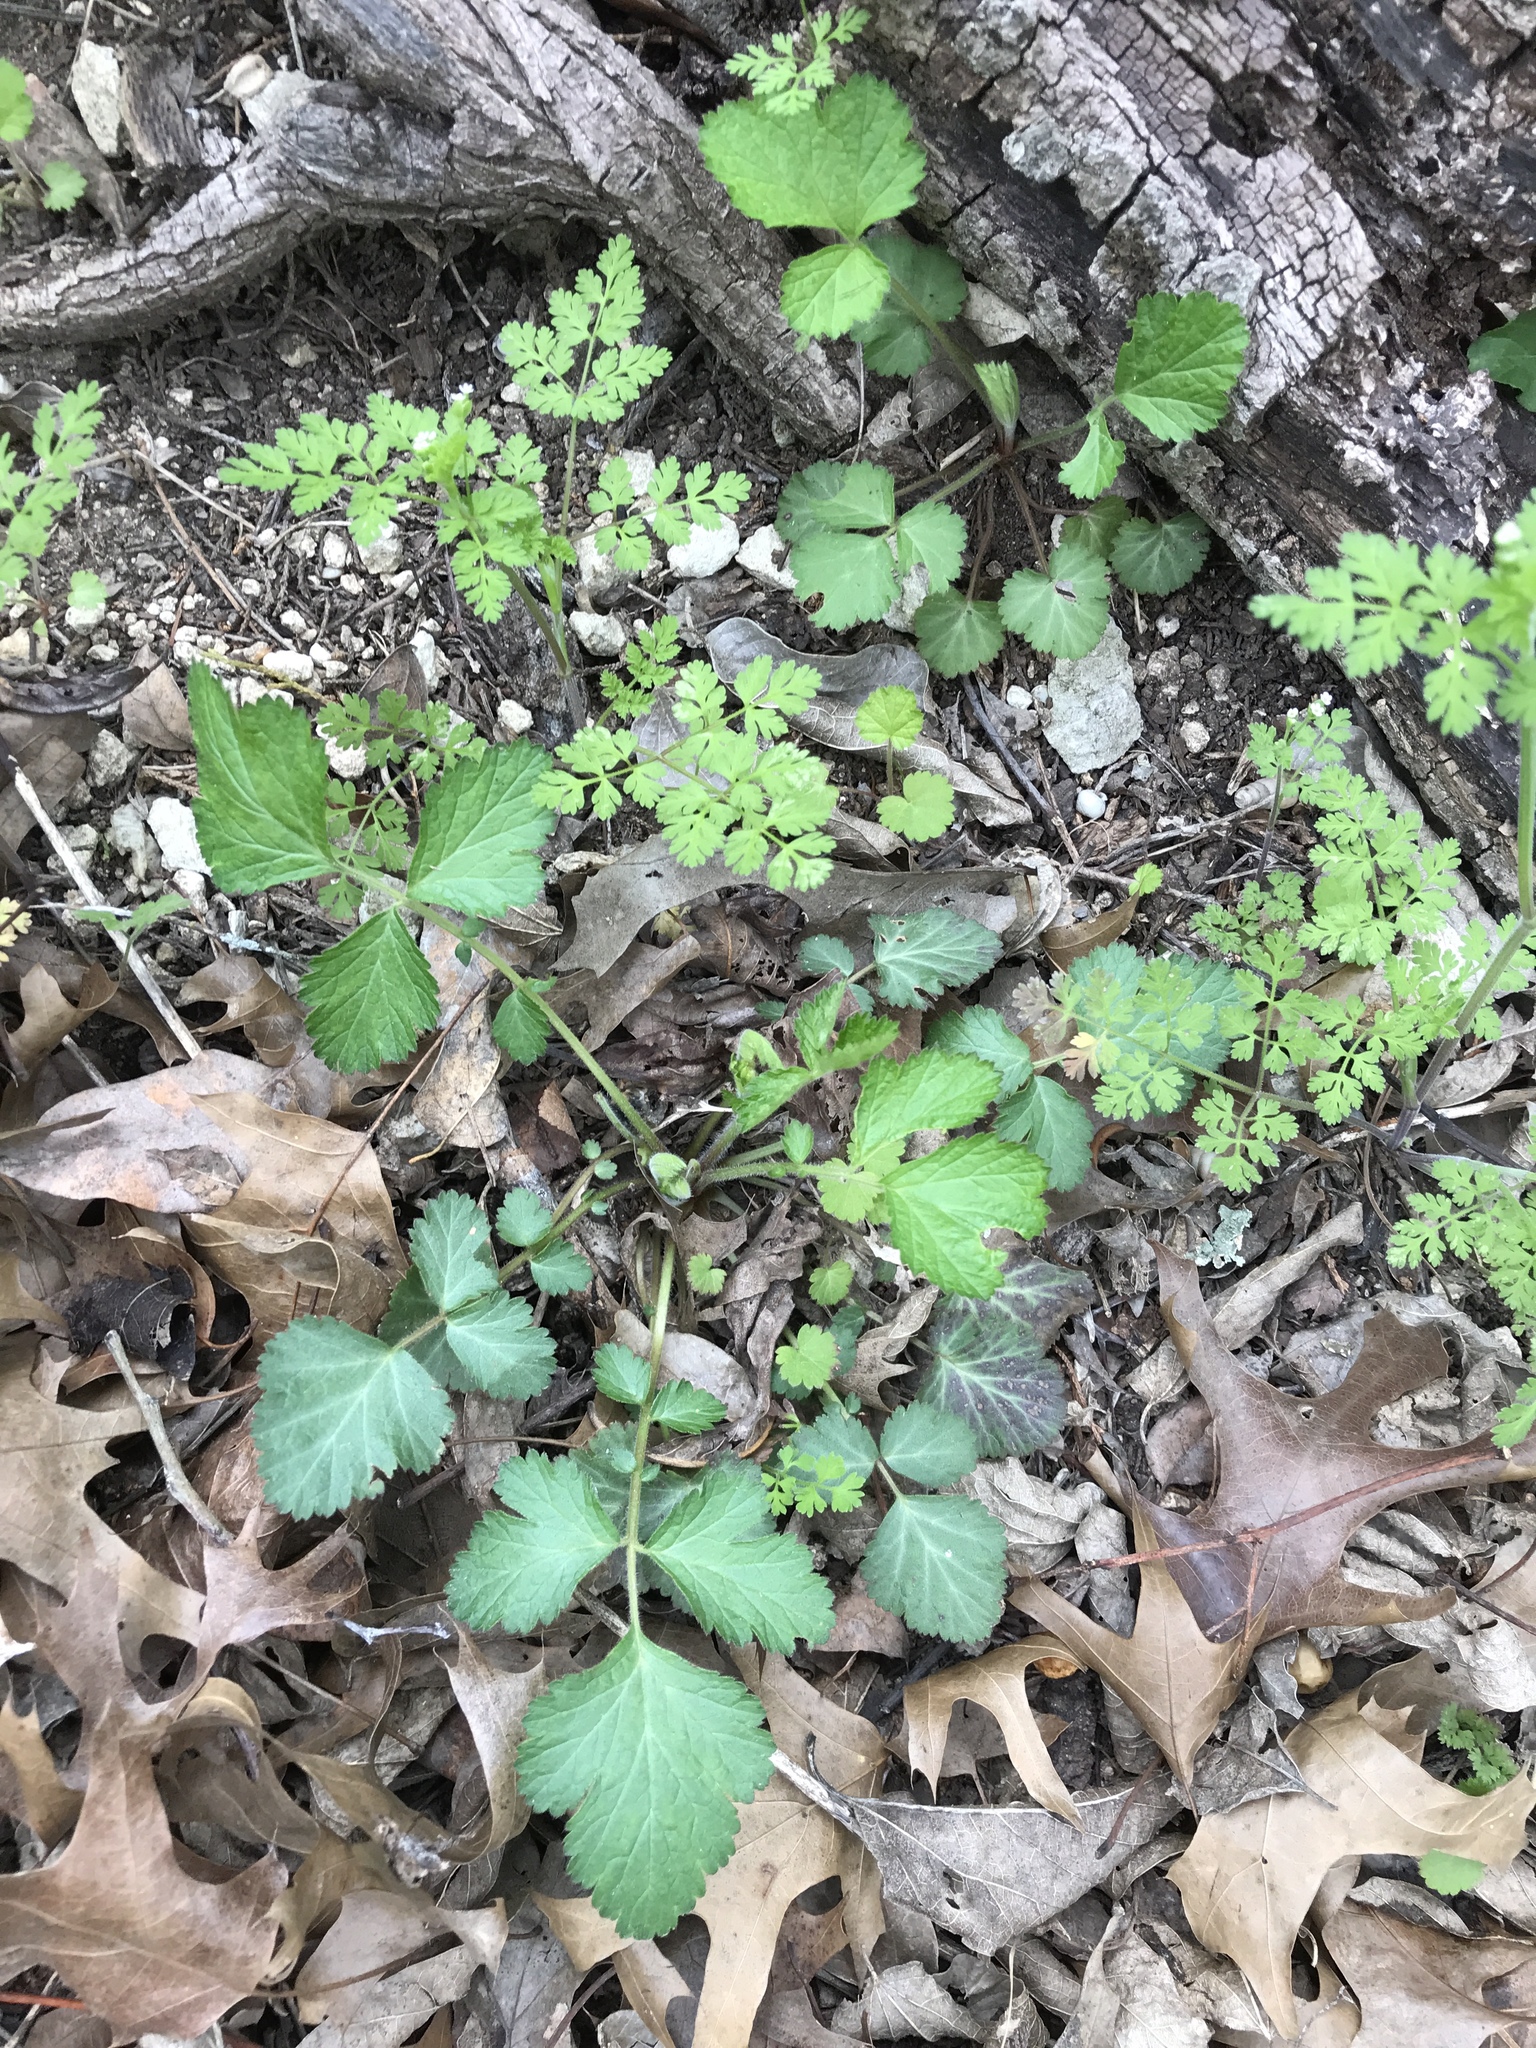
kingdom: Plantae
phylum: Tracheophyta
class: Magnoliopsida
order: Rosales
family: Rosaceae
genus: Geum
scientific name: Geum canadense
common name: White avens
